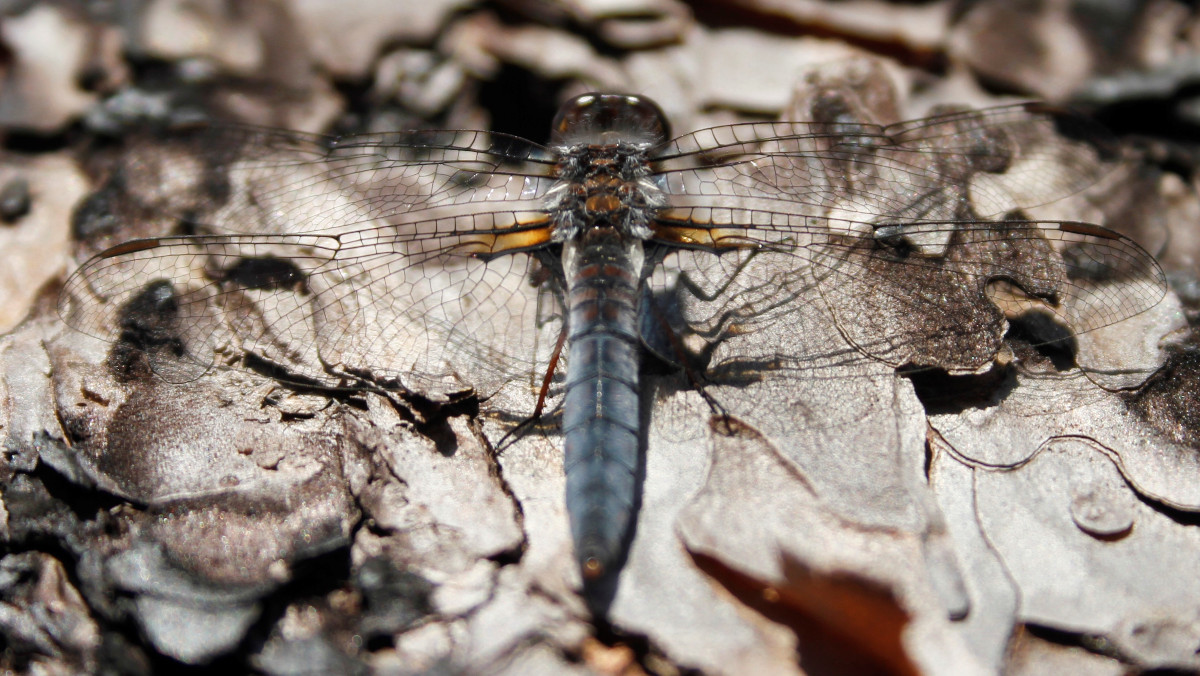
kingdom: Animalia
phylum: Arthropoda
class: Insecta
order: Odonata
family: Libellulidae
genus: Ladona
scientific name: Ladona deplanata
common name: Blue corporal
